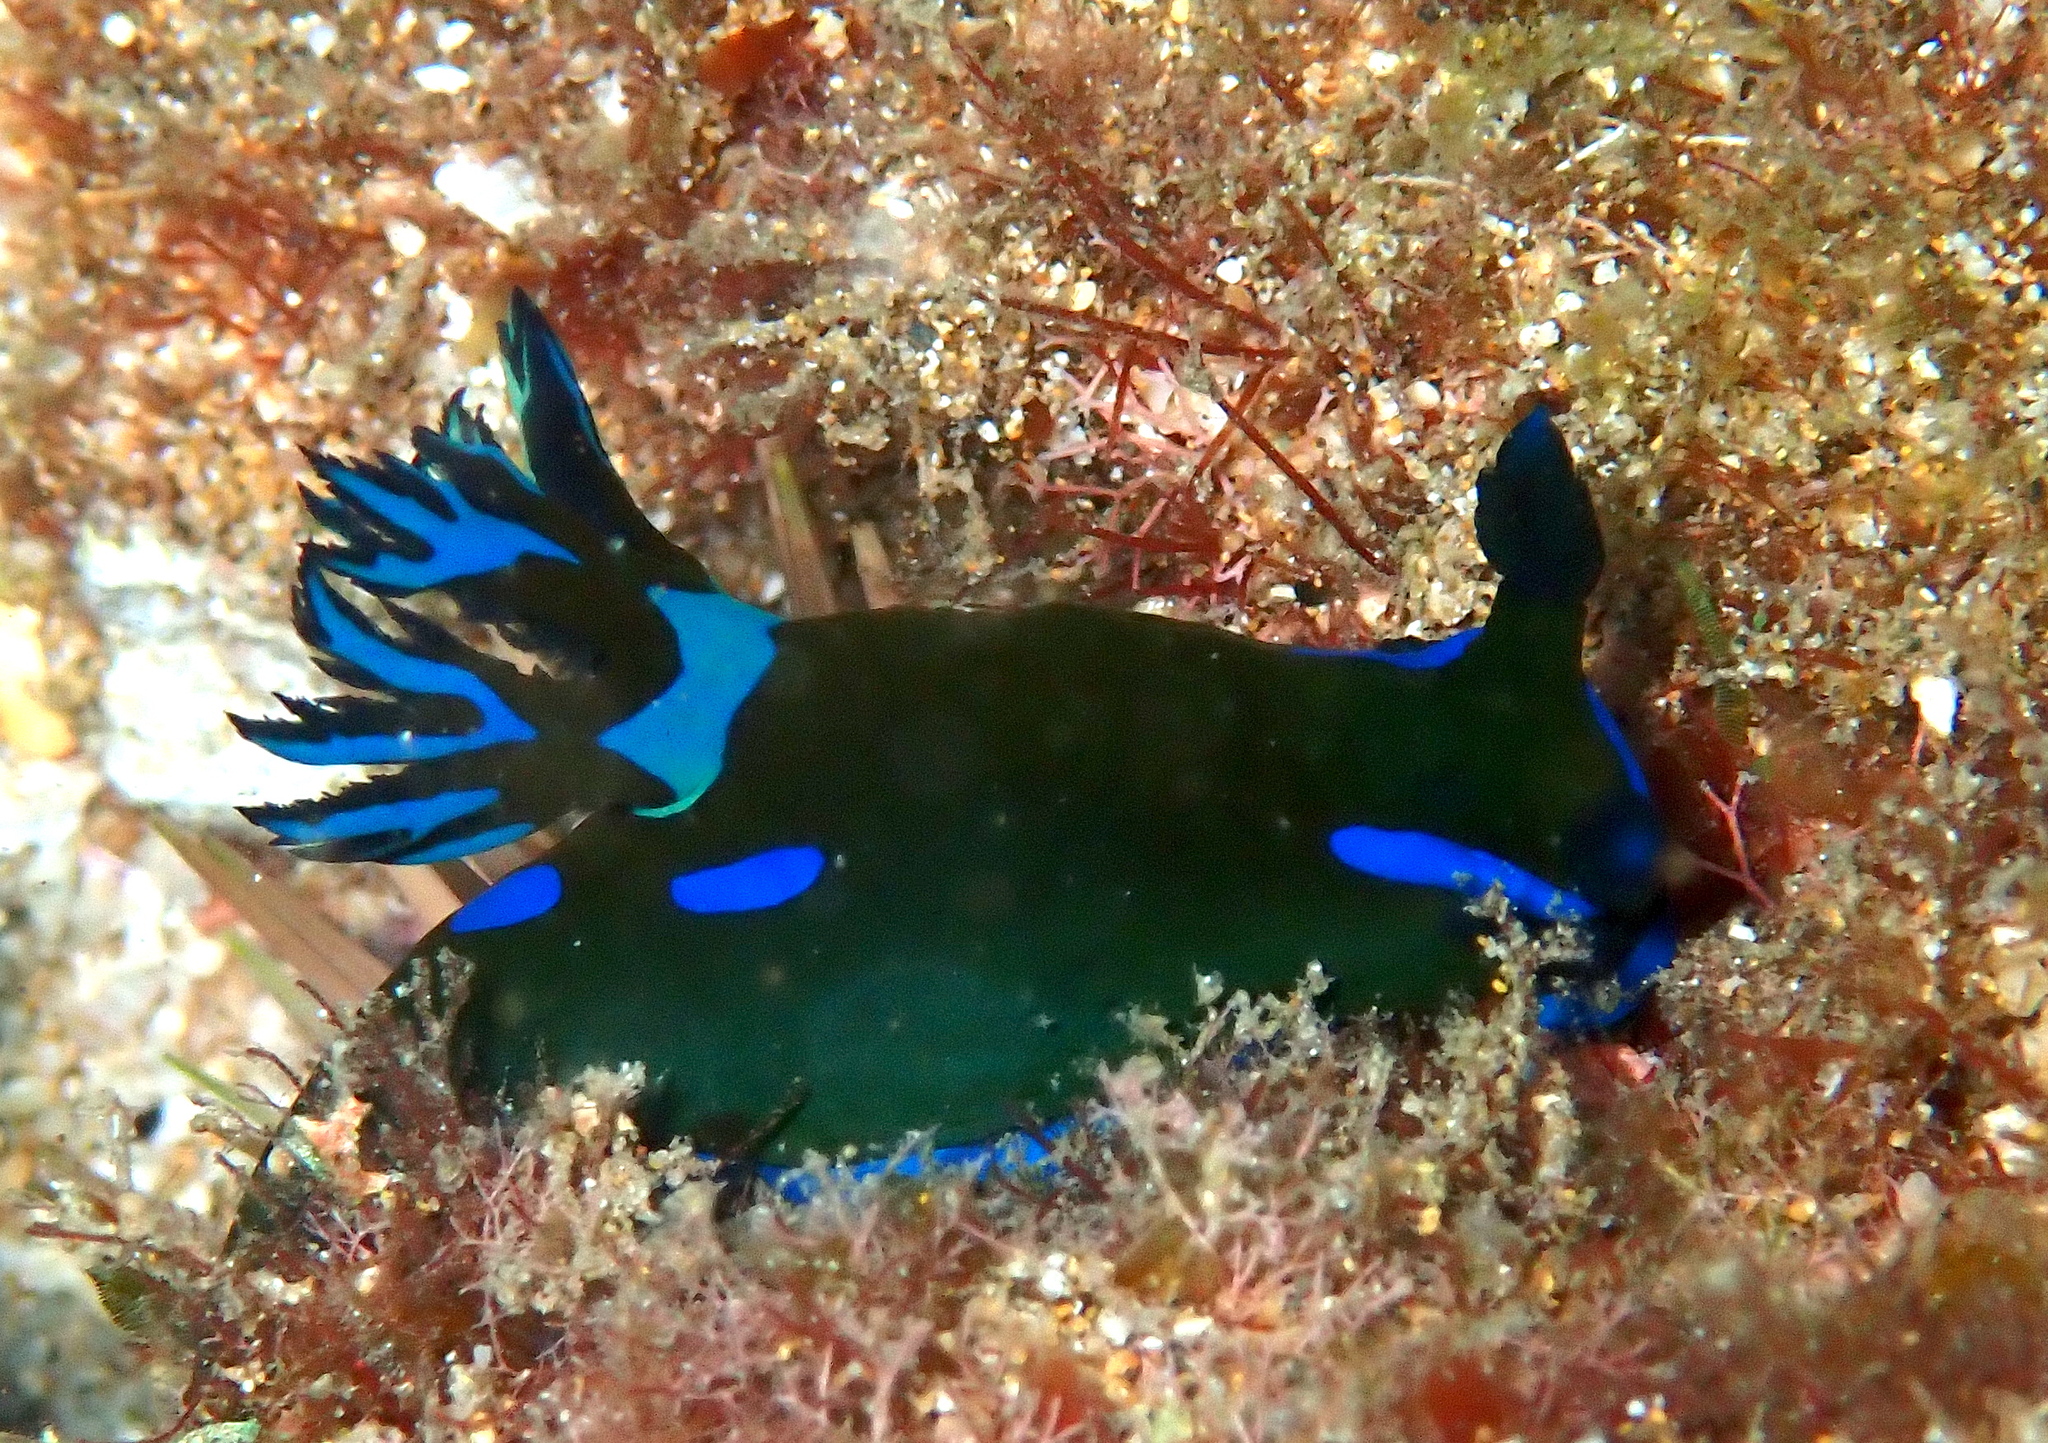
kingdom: Animalia
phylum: Mollusca
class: Gastropoda
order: Nudibranchia
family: Polyceridae
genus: Tambja
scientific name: Tambja morosa
